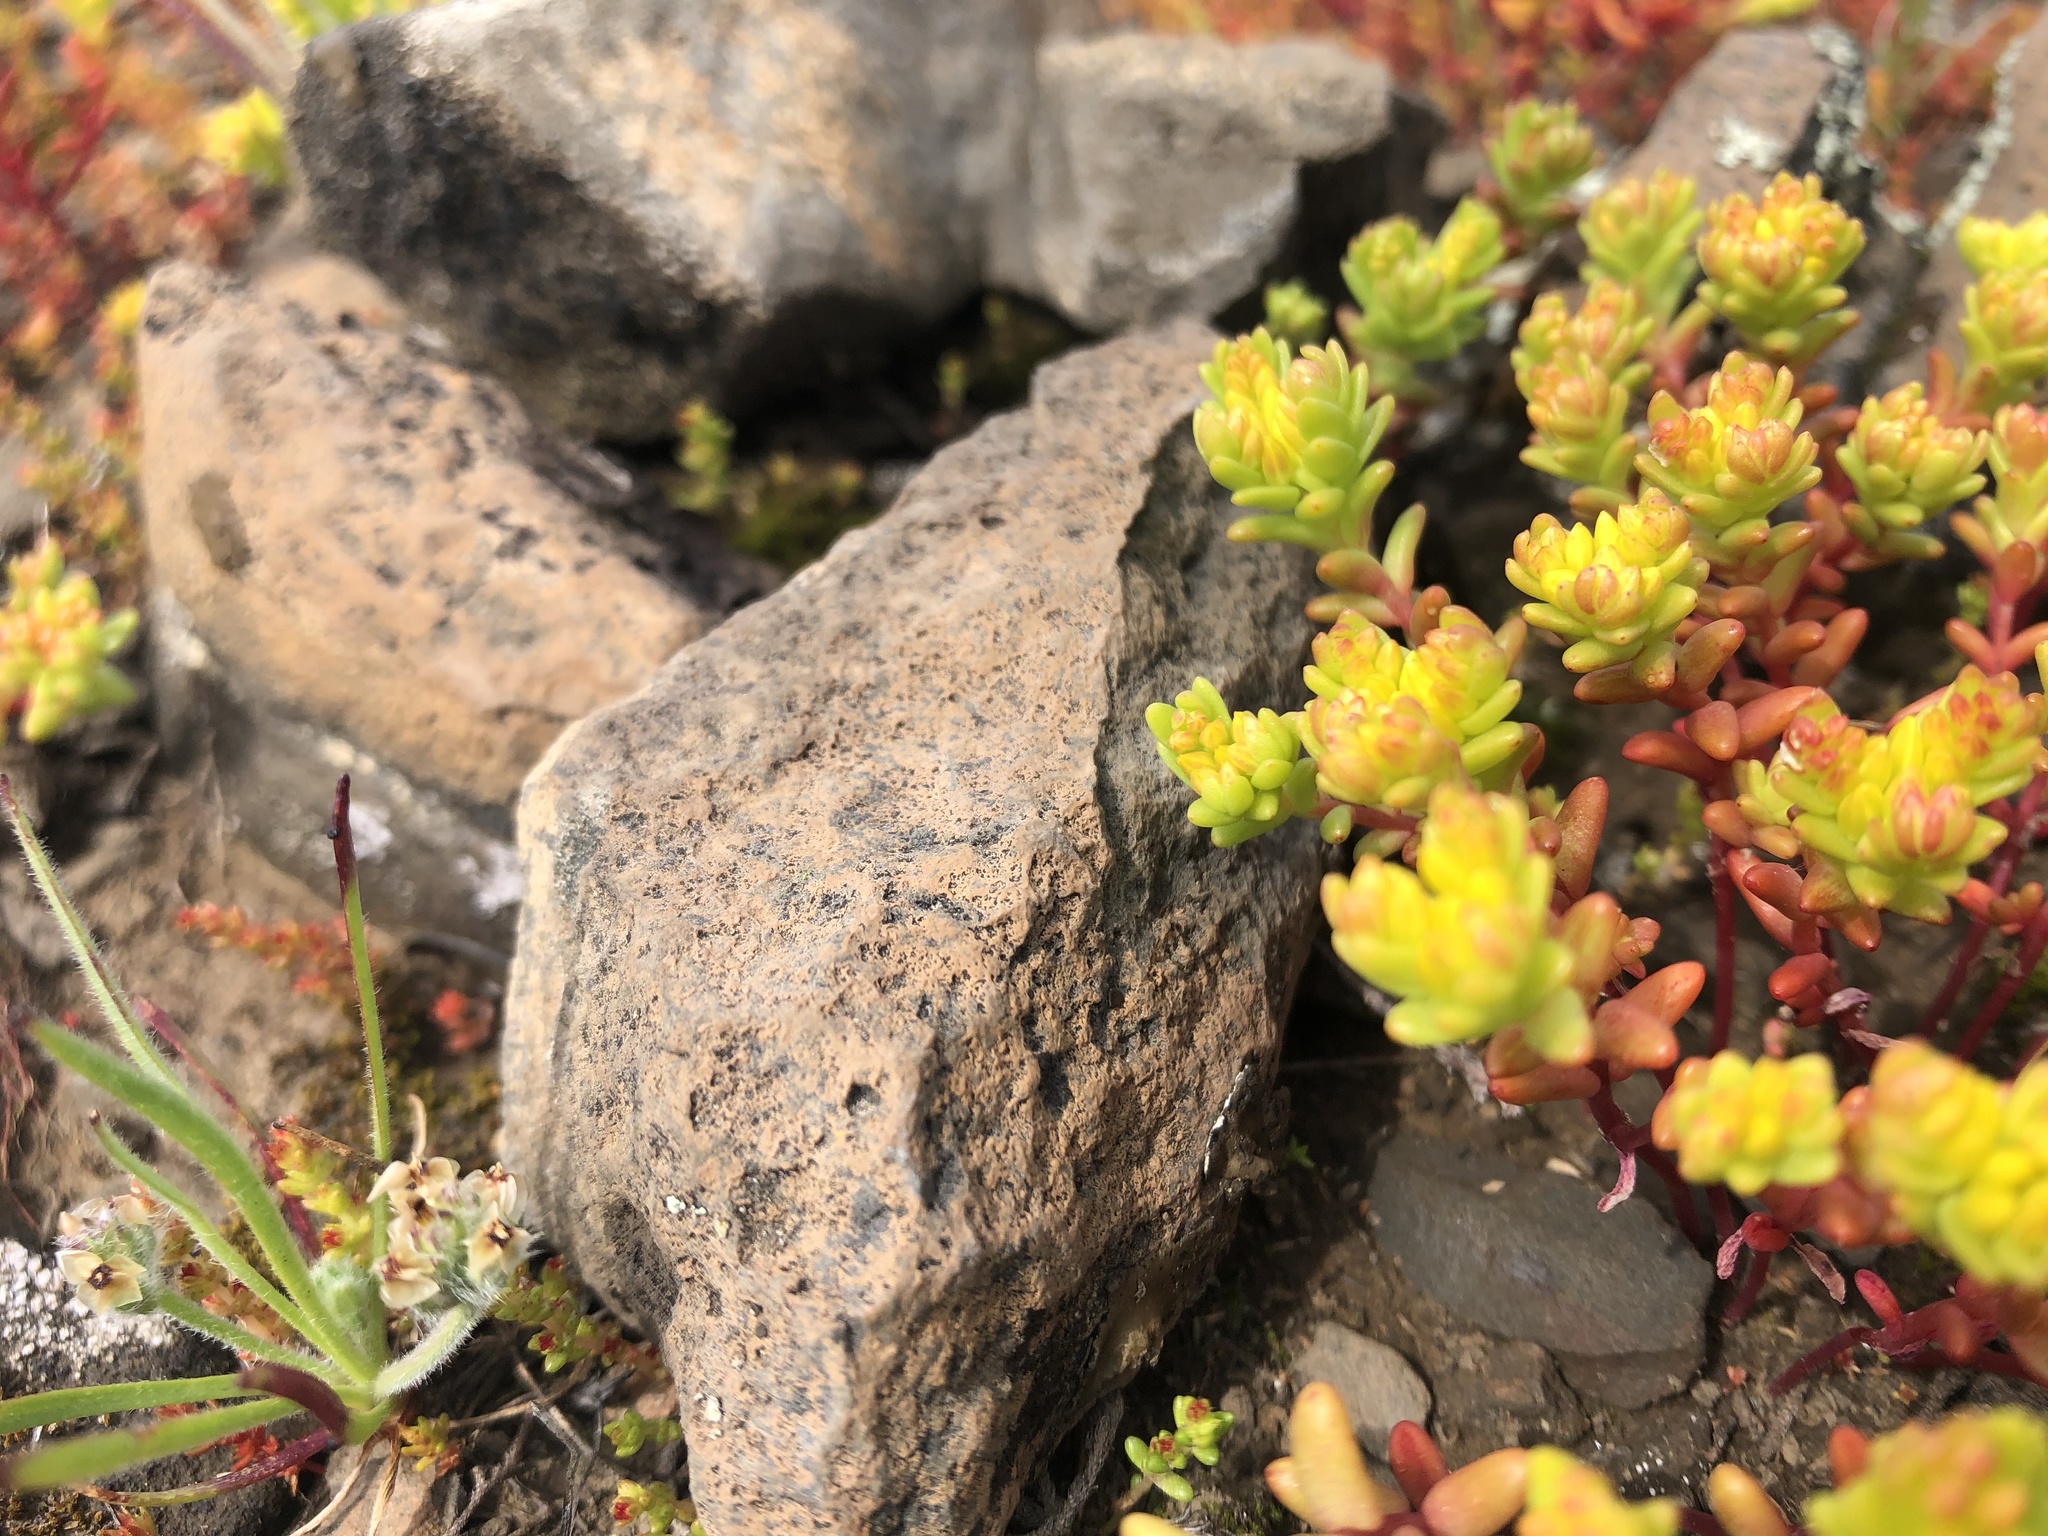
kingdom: Plantae
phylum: Tracheophyta
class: Magnoliopsida
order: Saxifragales
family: Crassulaceae
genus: Sedella
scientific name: Sedella pumila
